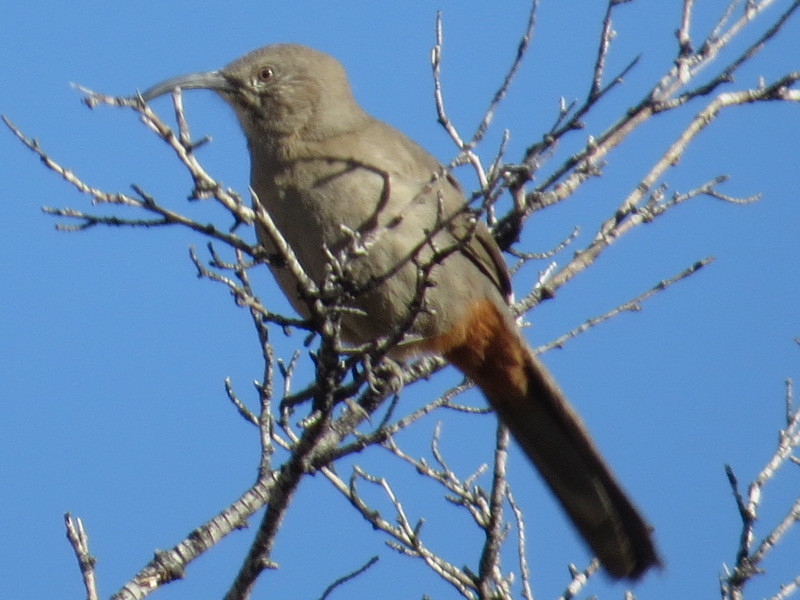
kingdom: Animalia
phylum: Chordata
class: Aves
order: Passeriformes
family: Mimidae
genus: Toxostoma
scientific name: Toxostoma crissale
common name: Crissal thrasher
